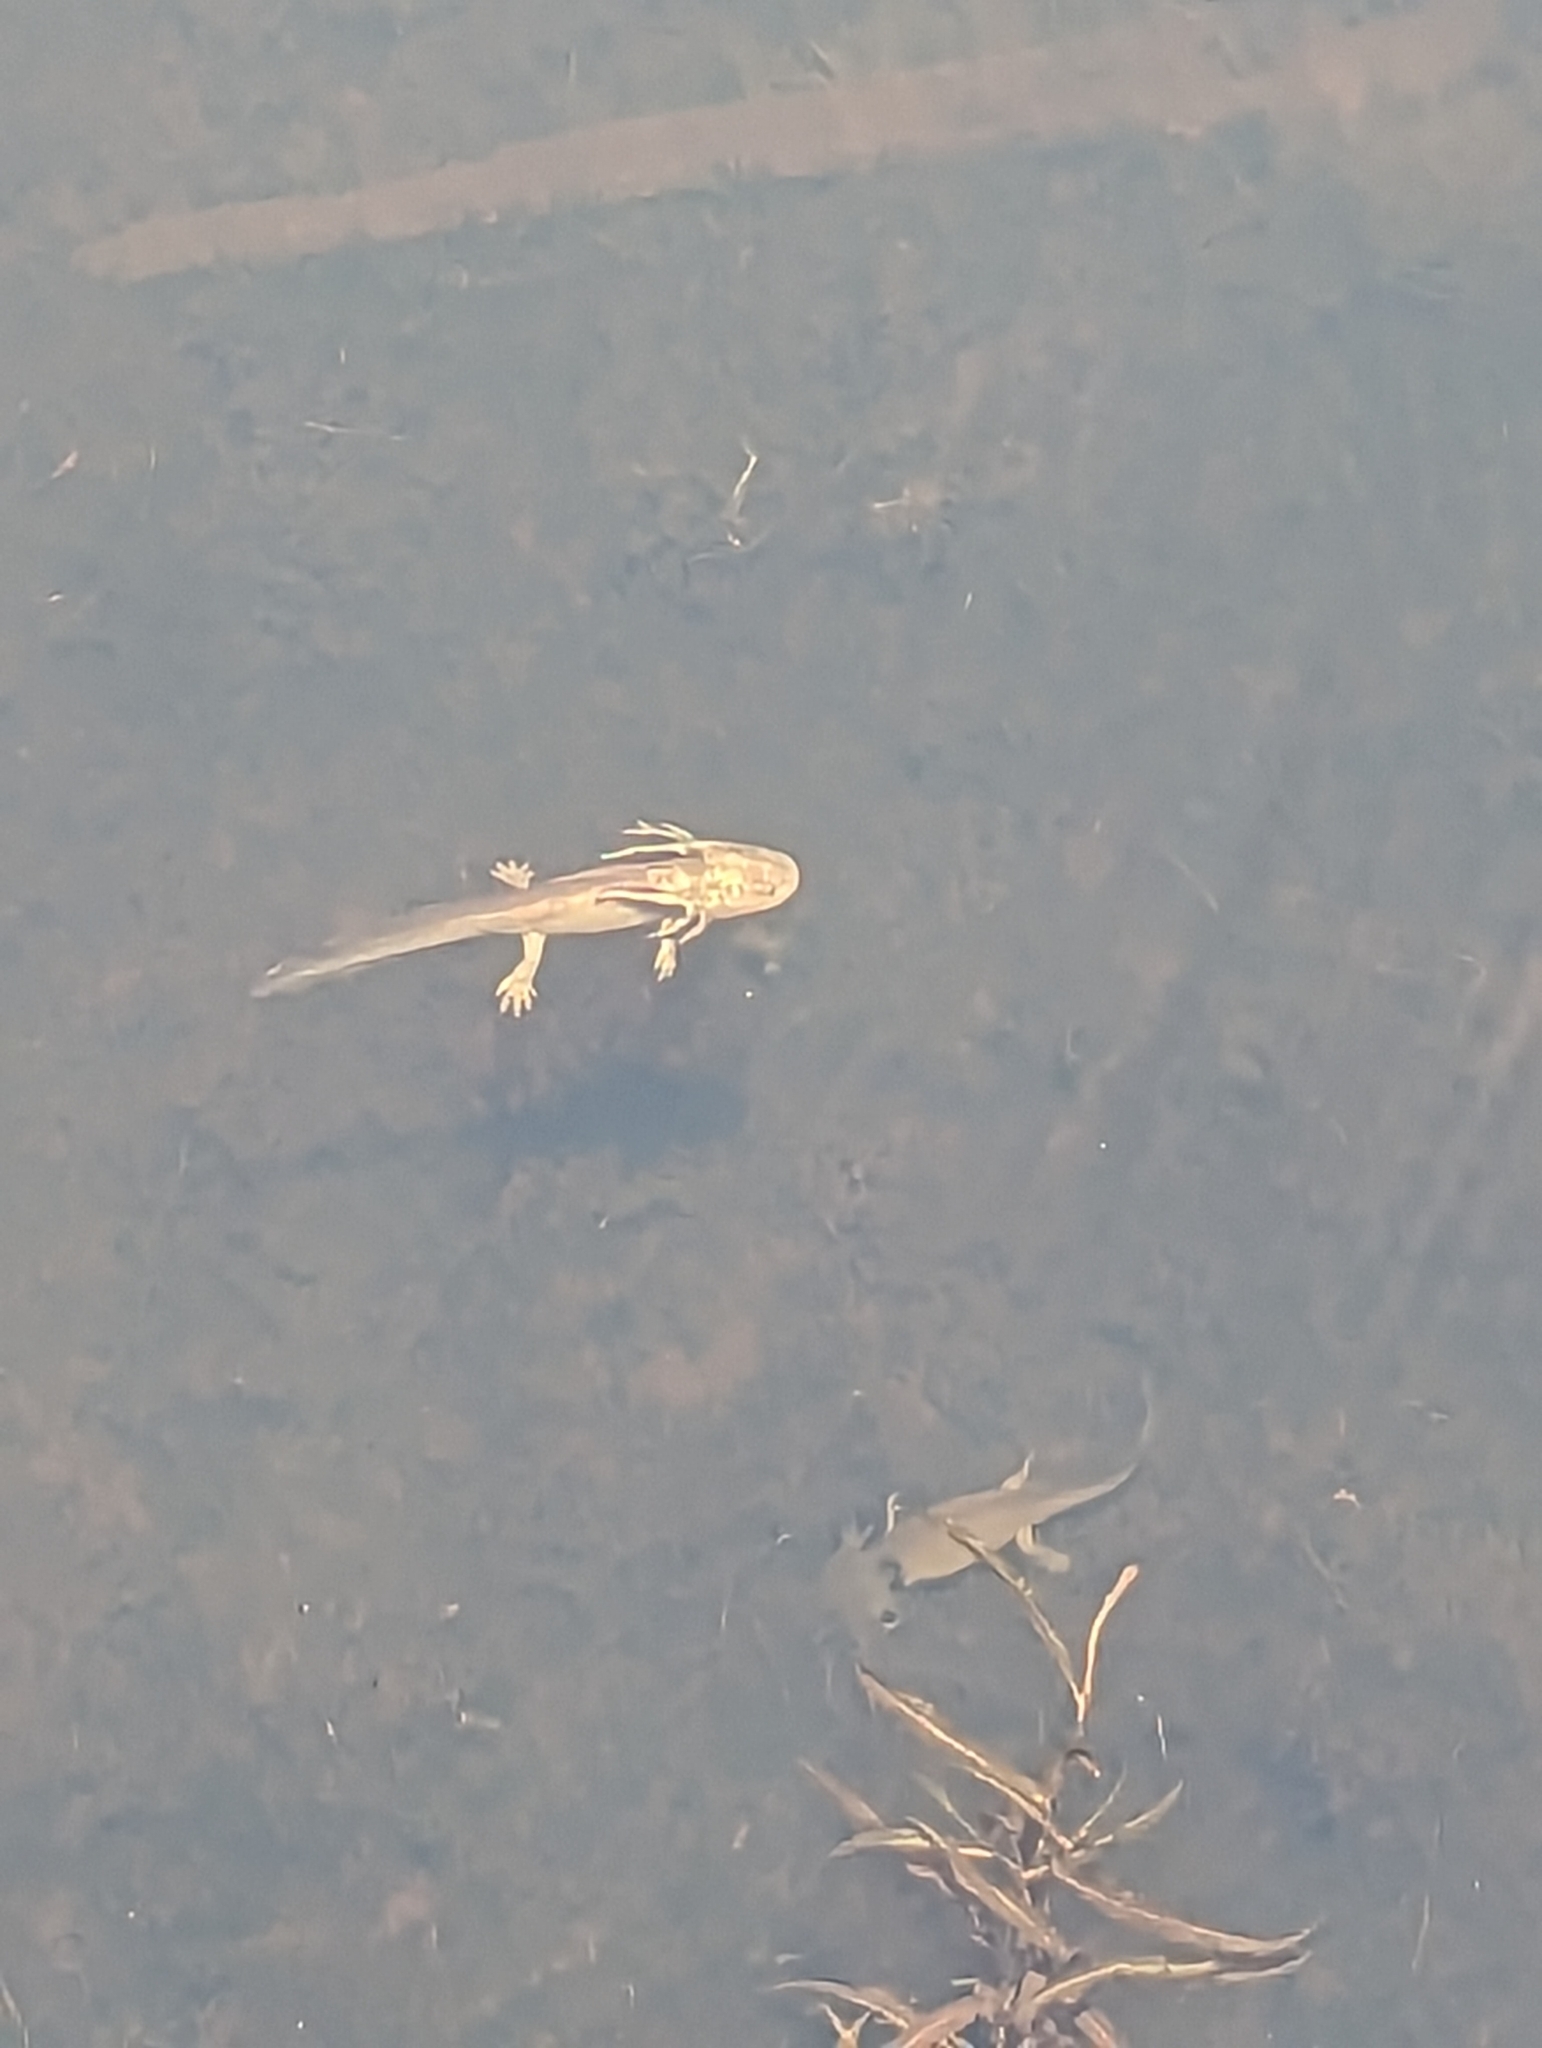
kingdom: Animalia
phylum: Chordata
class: Amphibia
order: Caudata
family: Ambystomatidae
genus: Ambystoma
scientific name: Ambystoma mavortium
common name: Western tiger salamander
